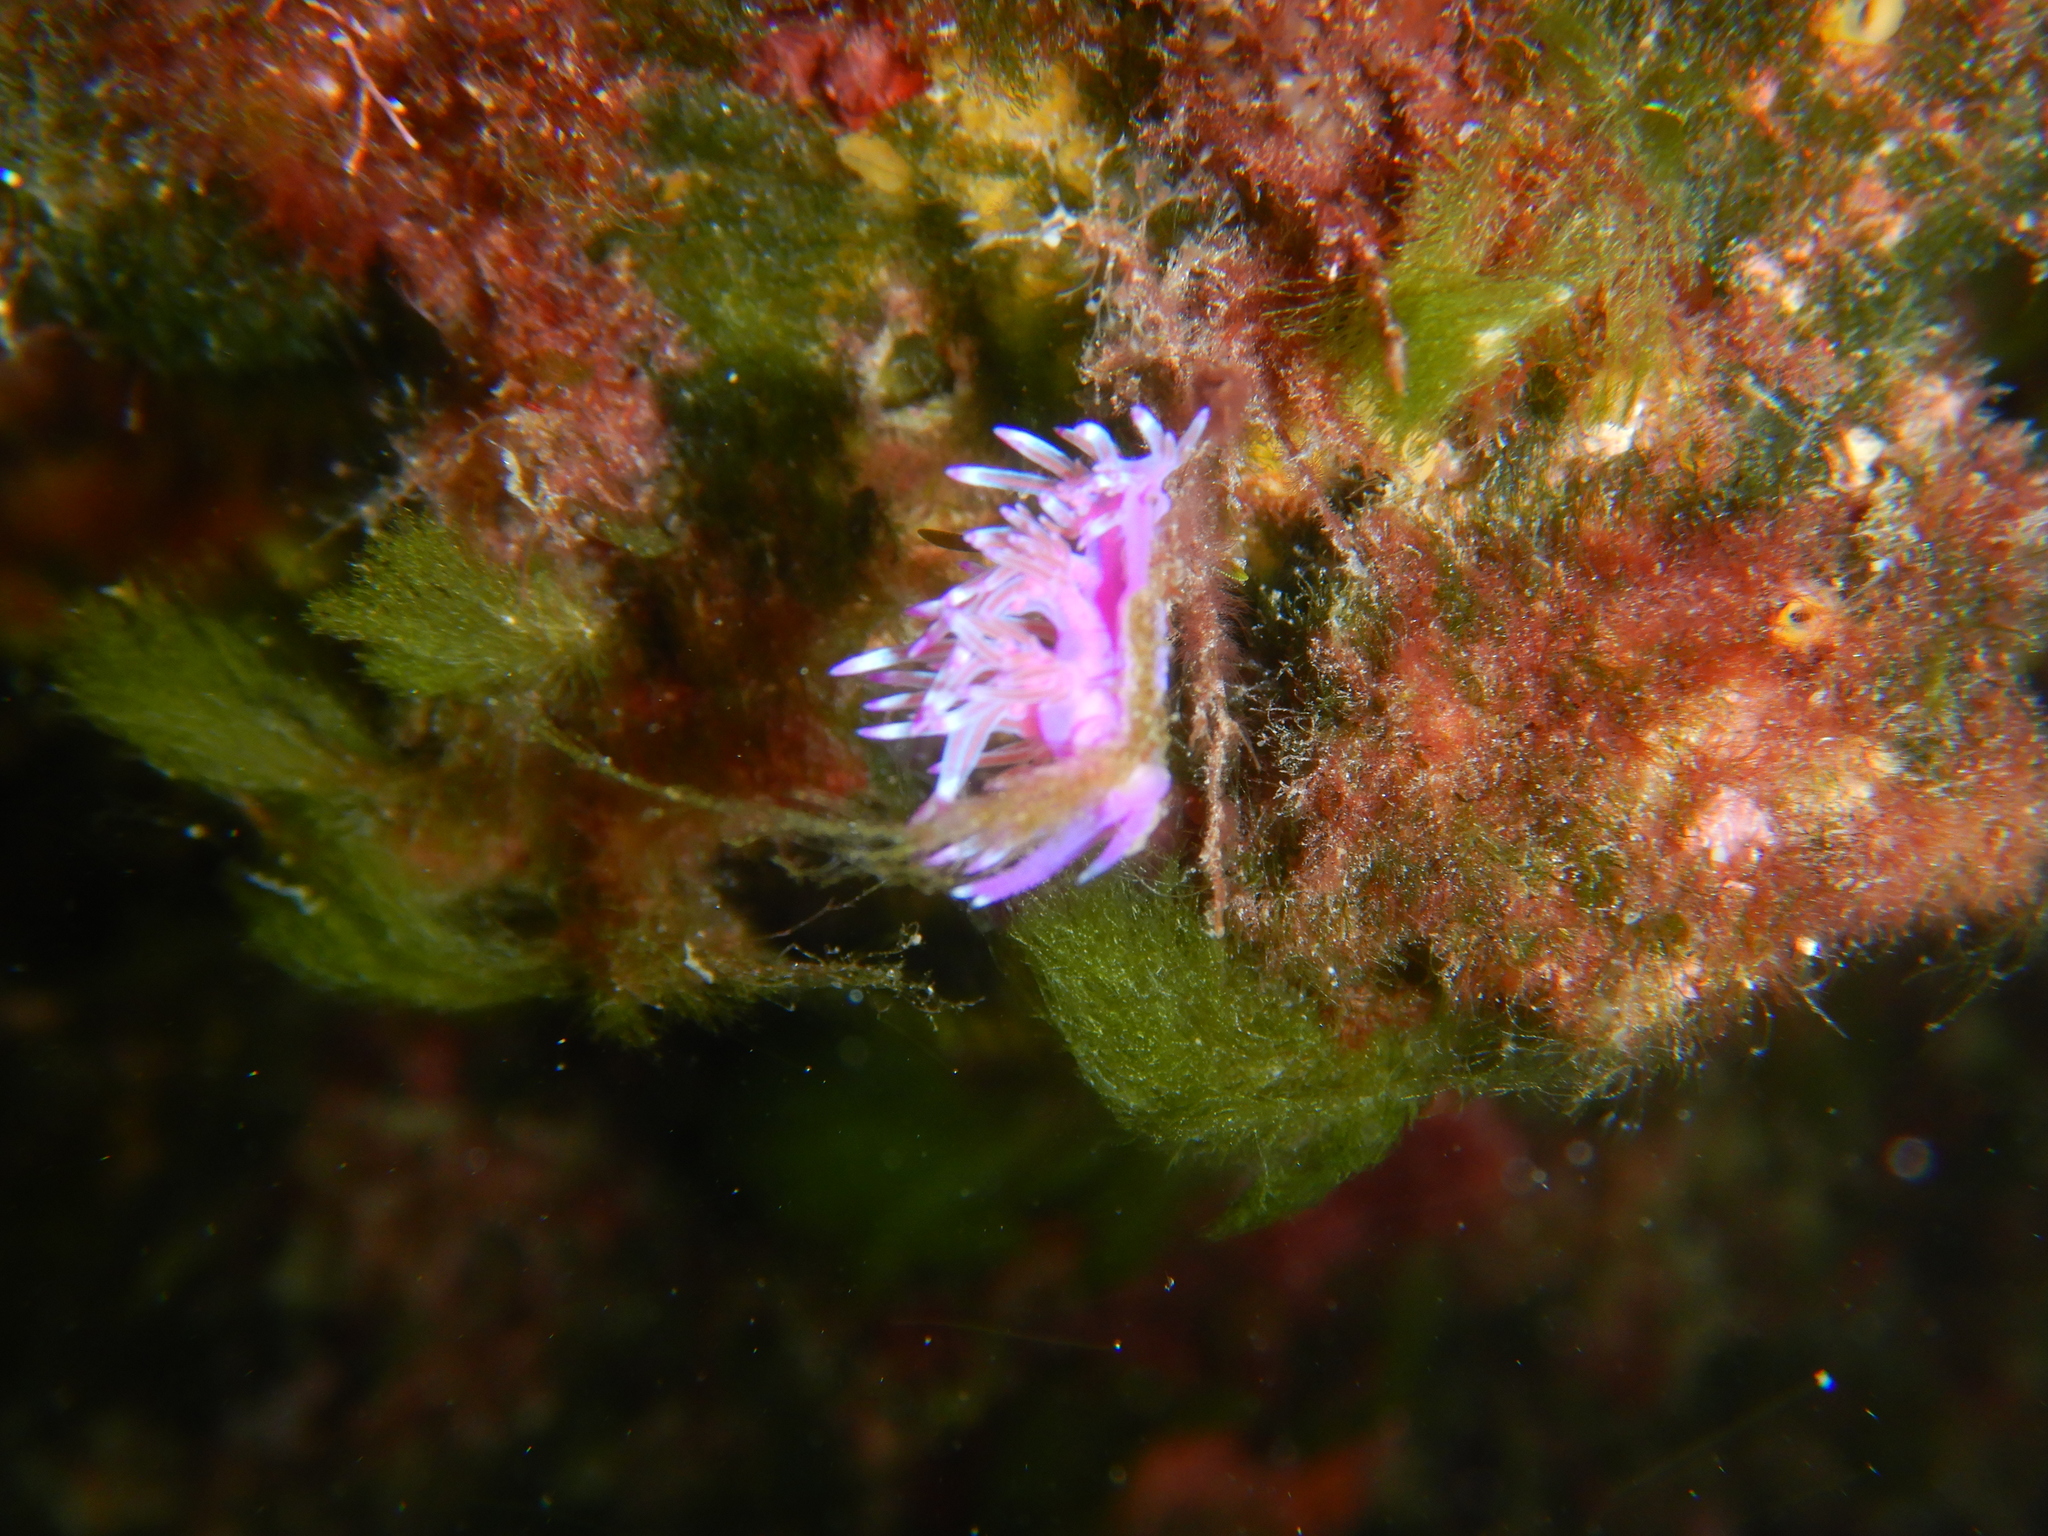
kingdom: Animalia
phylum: Mollusca
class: Gastropoda
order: Nudibranchia
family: Flabellinidae
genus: Flabellina
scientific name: Flabellina affinis
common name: Mediterranean violet aeolid
